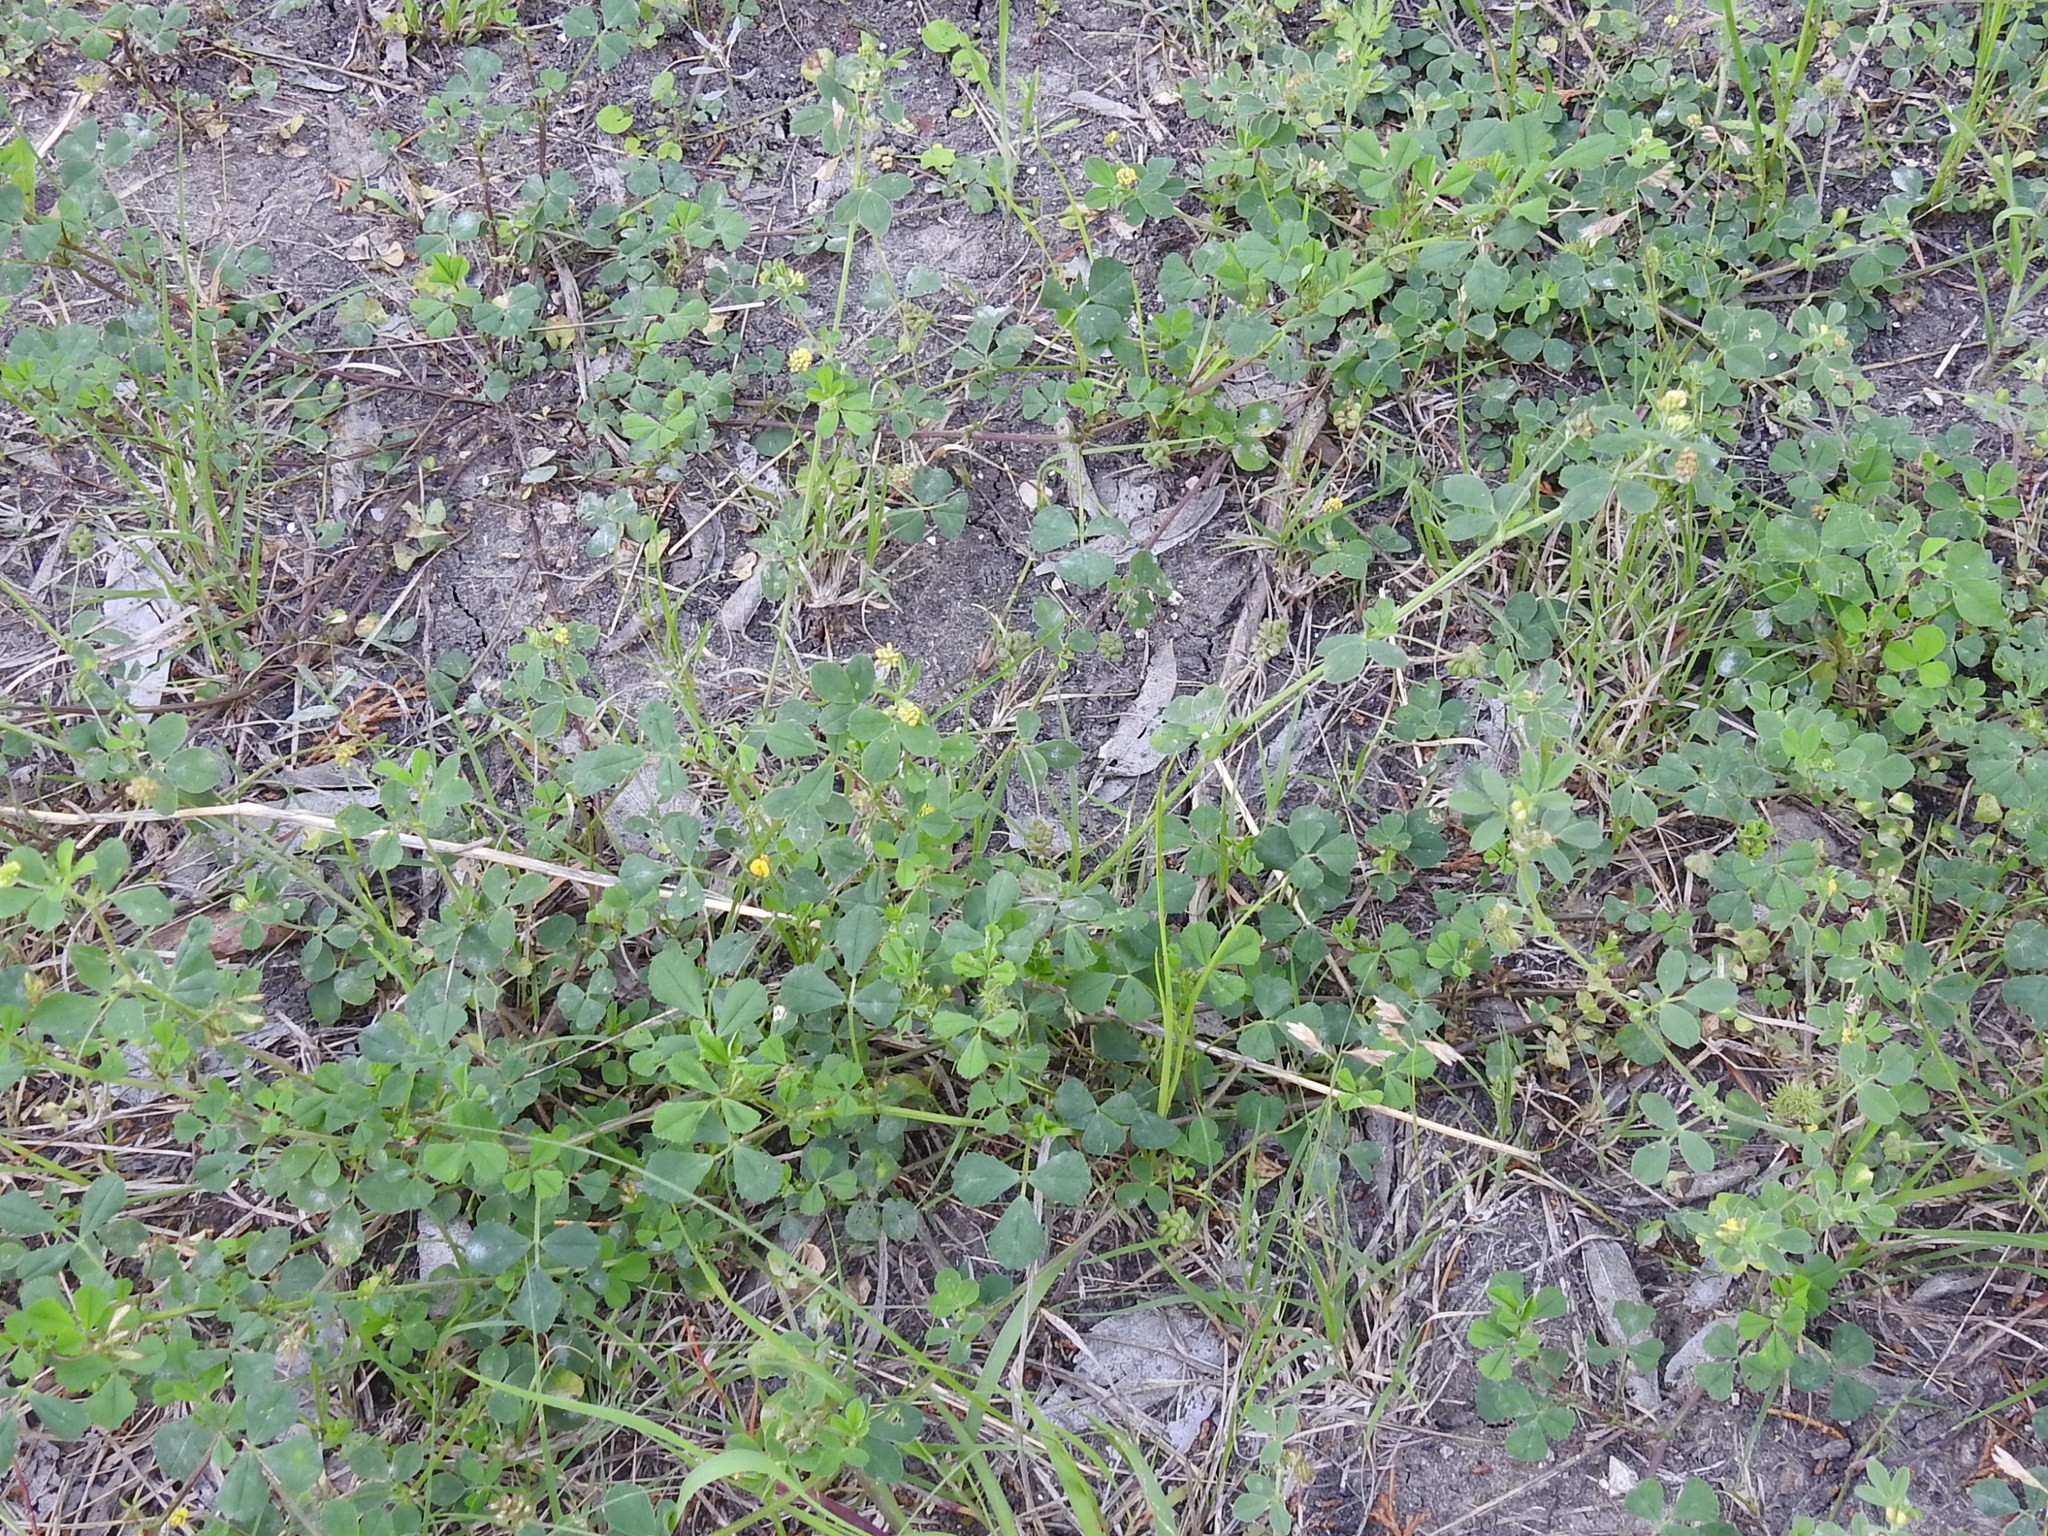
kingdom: Plantae
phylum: Tracheophyta
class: Magnoliopsida
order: Fabales
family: Fabaceae
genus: Medicago
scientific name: Medicago lupulina
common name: Black medick
